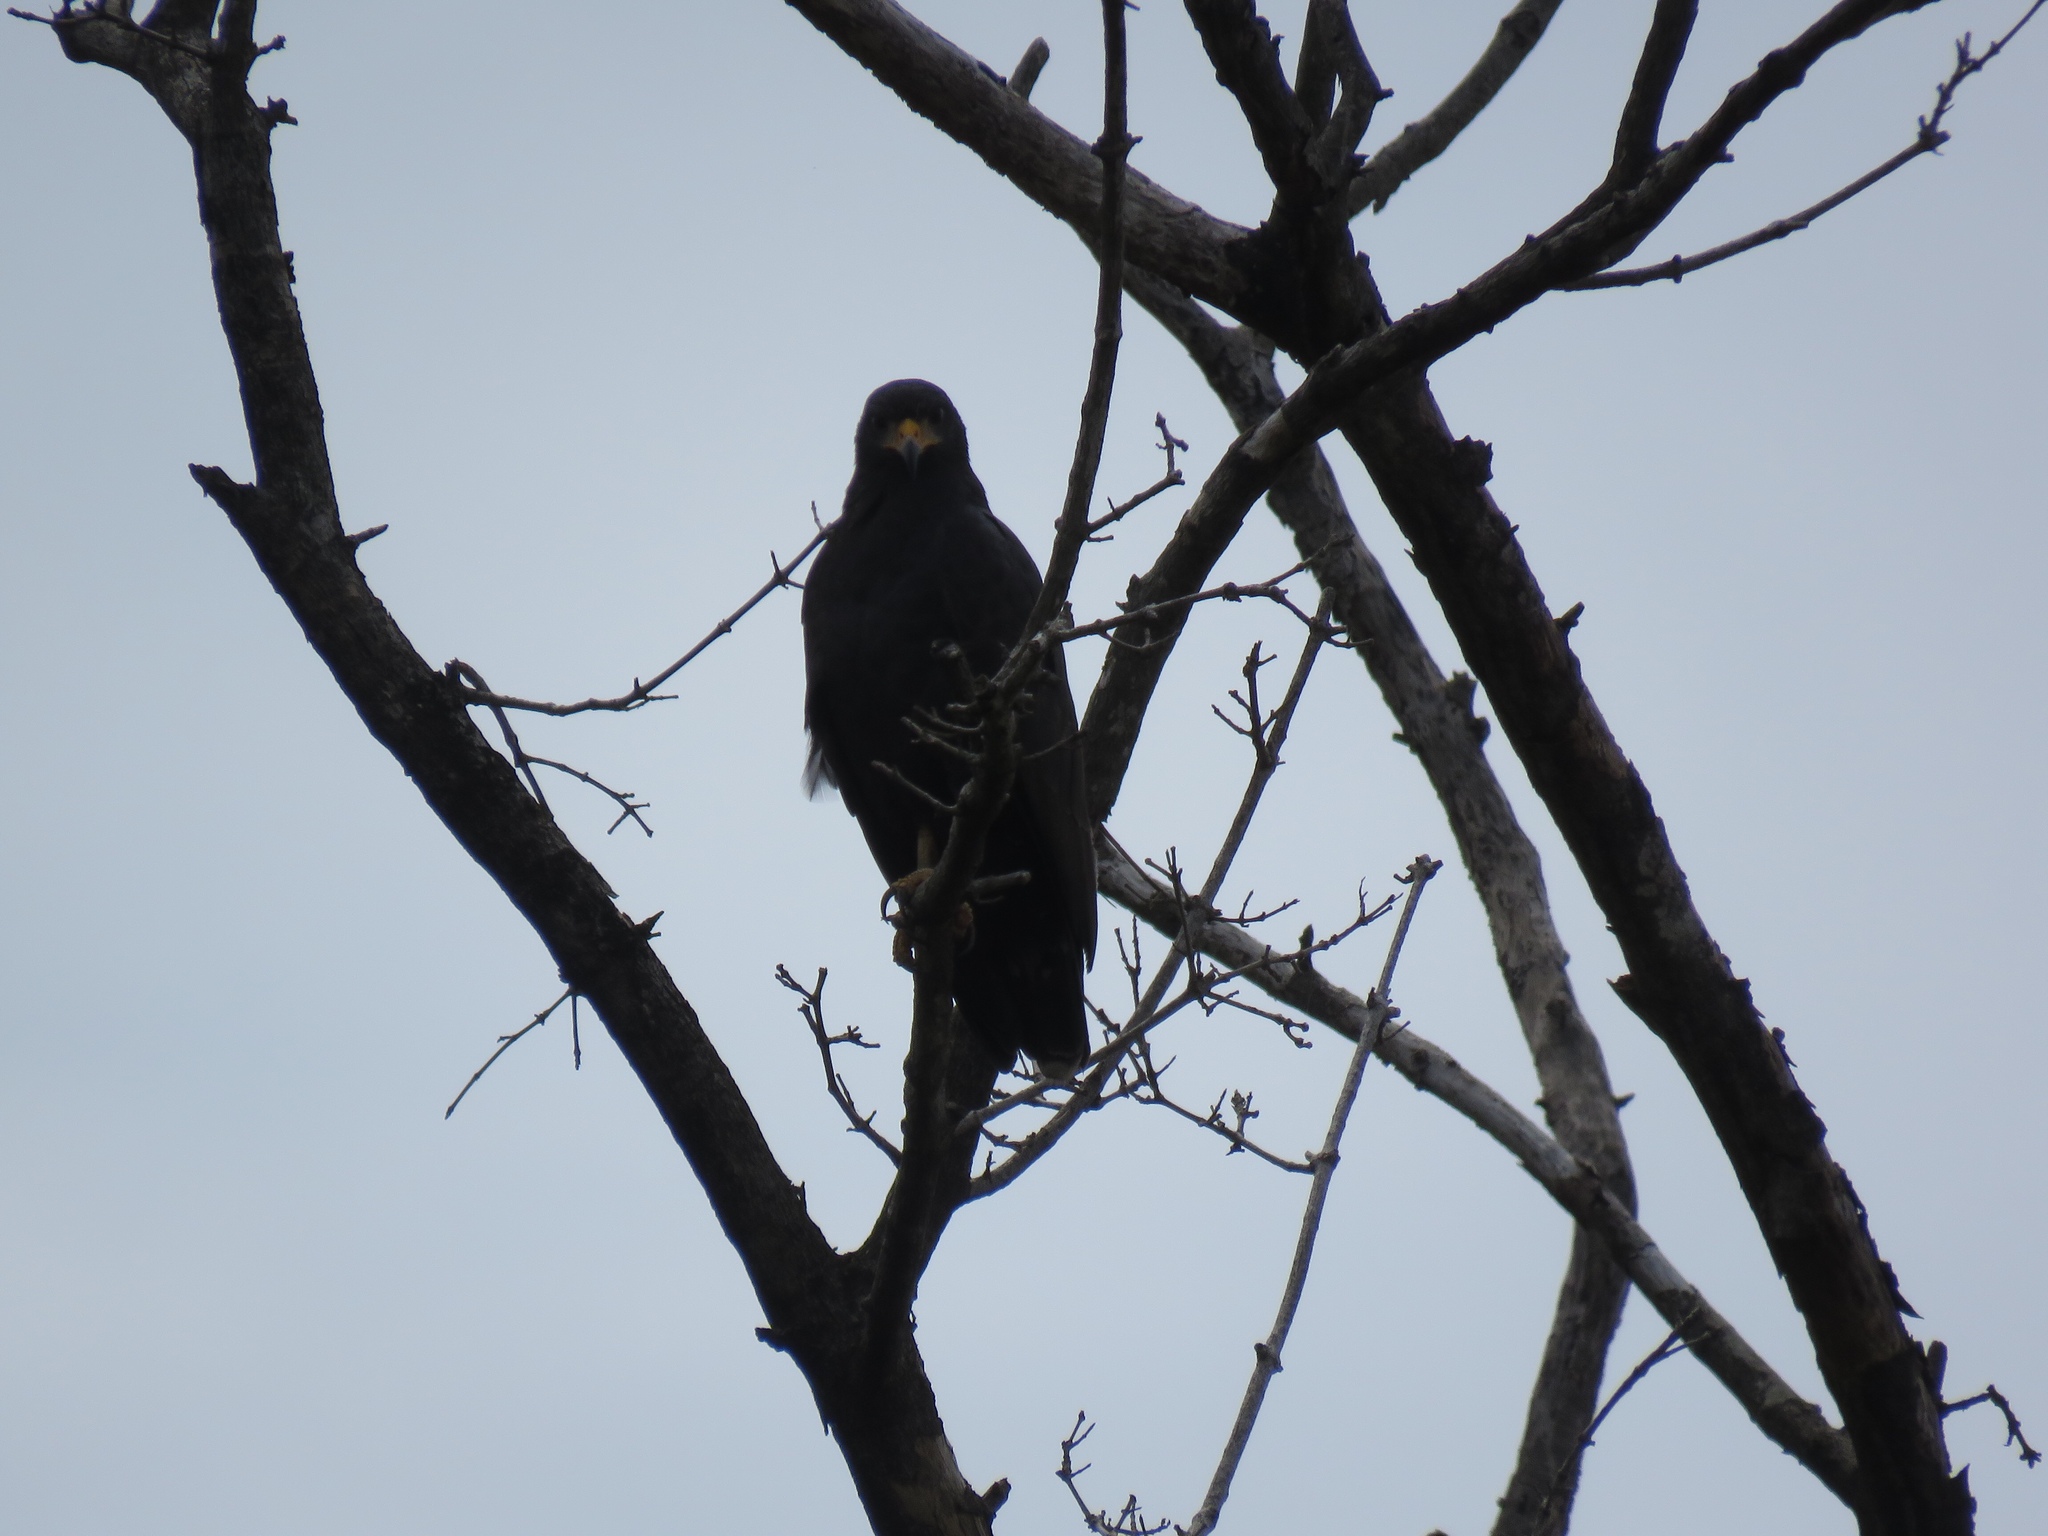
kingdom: Animalia
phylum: Chordata
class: Aves
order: Accipitriformes
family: Accipitridae
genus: Buteogallus
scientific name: Buteogallus anthracinus
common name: Common black hawk
